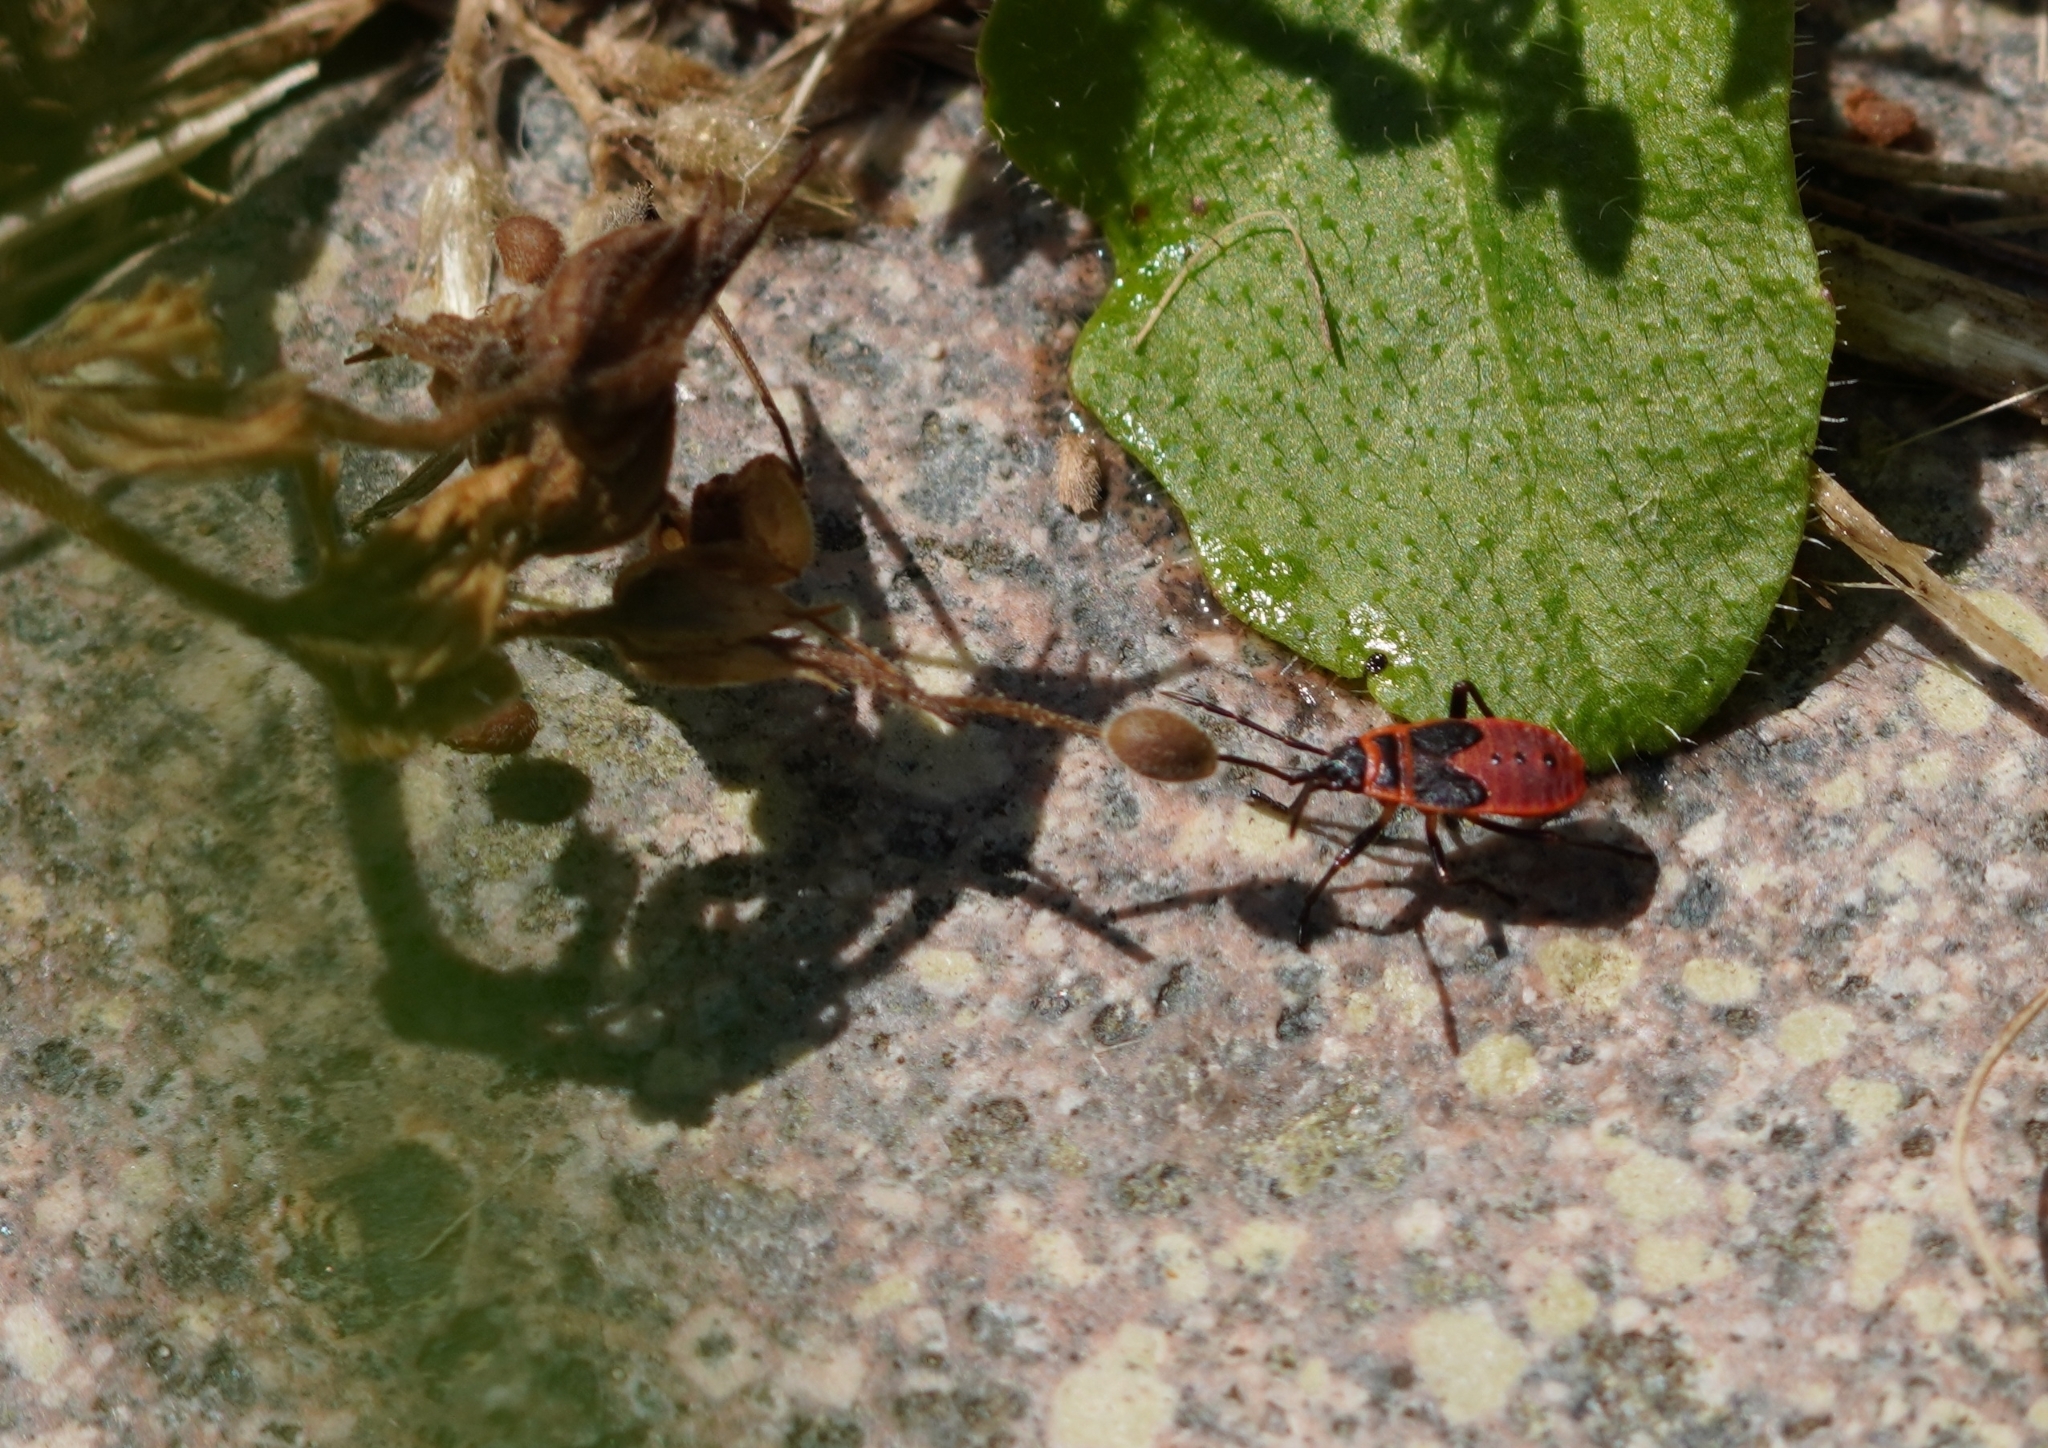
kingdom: Animalia
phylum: Arthropoda
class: Insecta
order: Hemiptera
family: Pyrrhocoridae
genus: Pyrrhocoris
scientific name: Pyrrhocoris apterus
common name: Firebug
